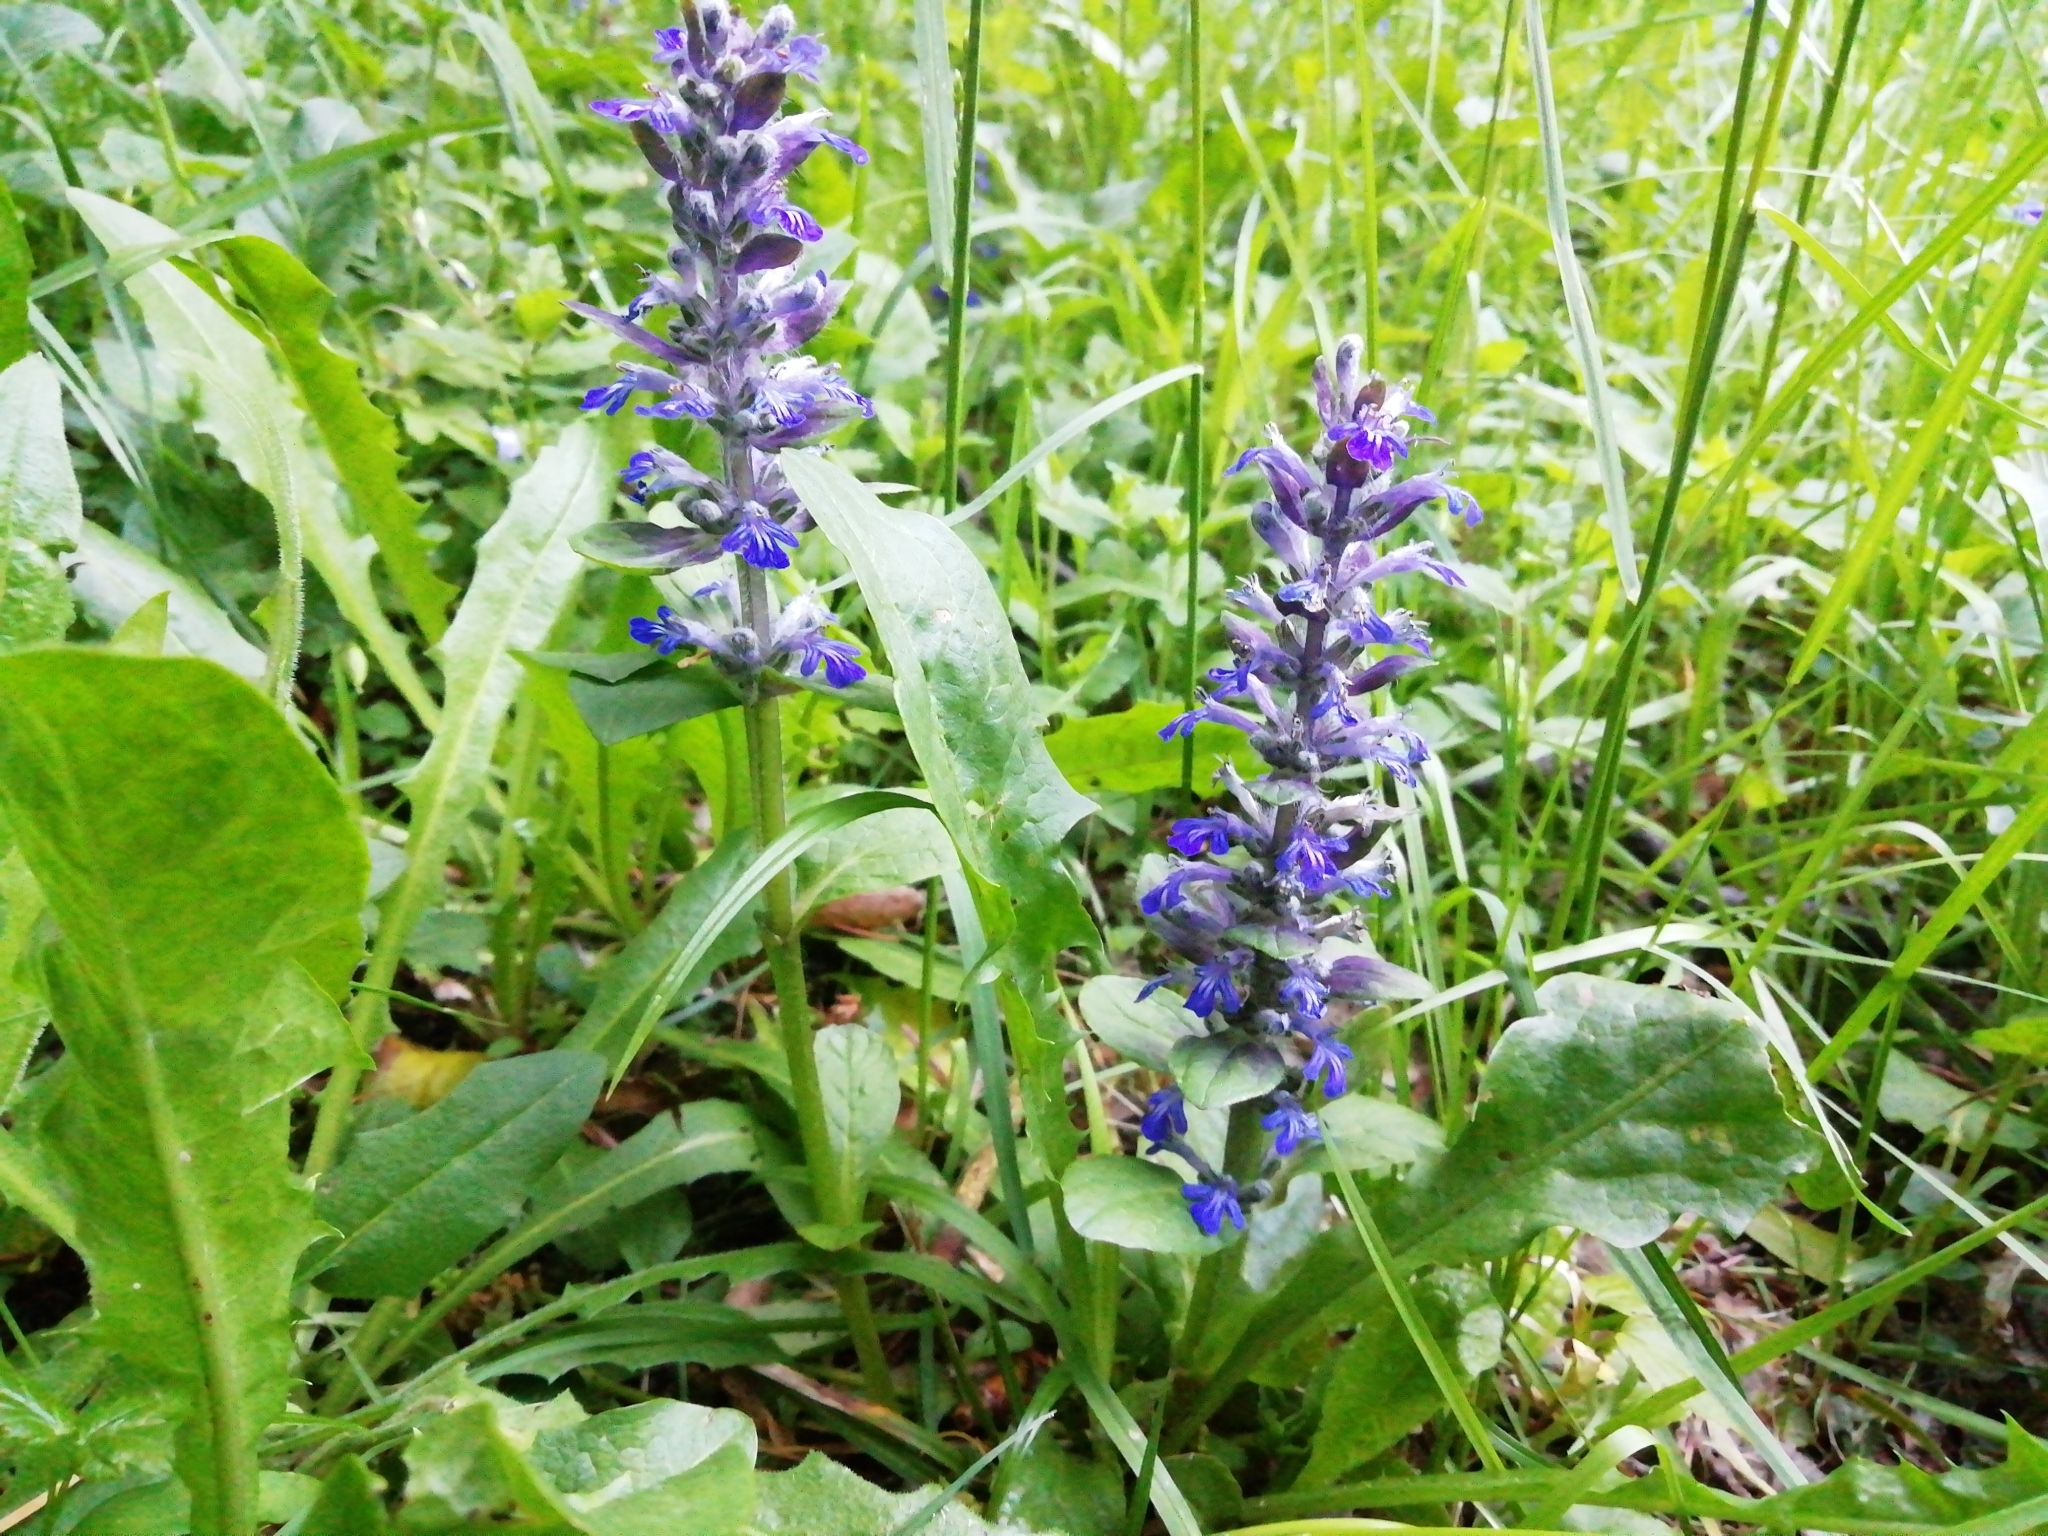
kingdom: Plantae
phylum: Tracheophyta
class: Magnoliopsida
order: Lamiales
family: Lamiaceae
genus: Ajuga
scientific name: Ajuga reptans
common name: Bugle
